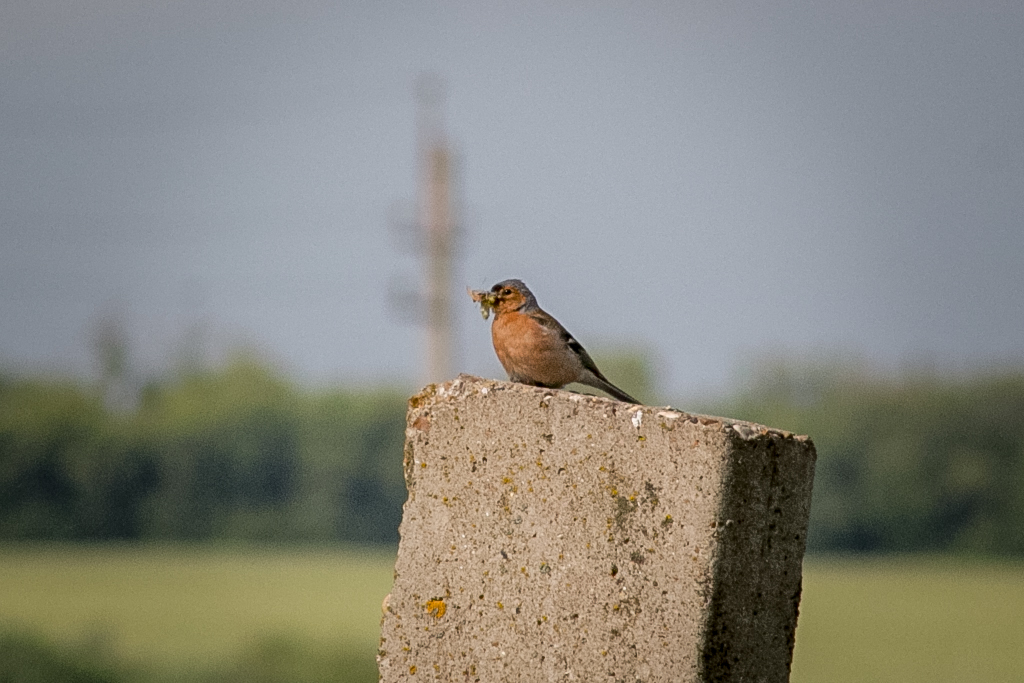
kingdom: Animalia
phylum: Chordata
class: Aves
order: Passeriformes
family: Fringillidae
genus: Fringilla
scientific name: Fringilla coelebs
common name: Common chaffinch
